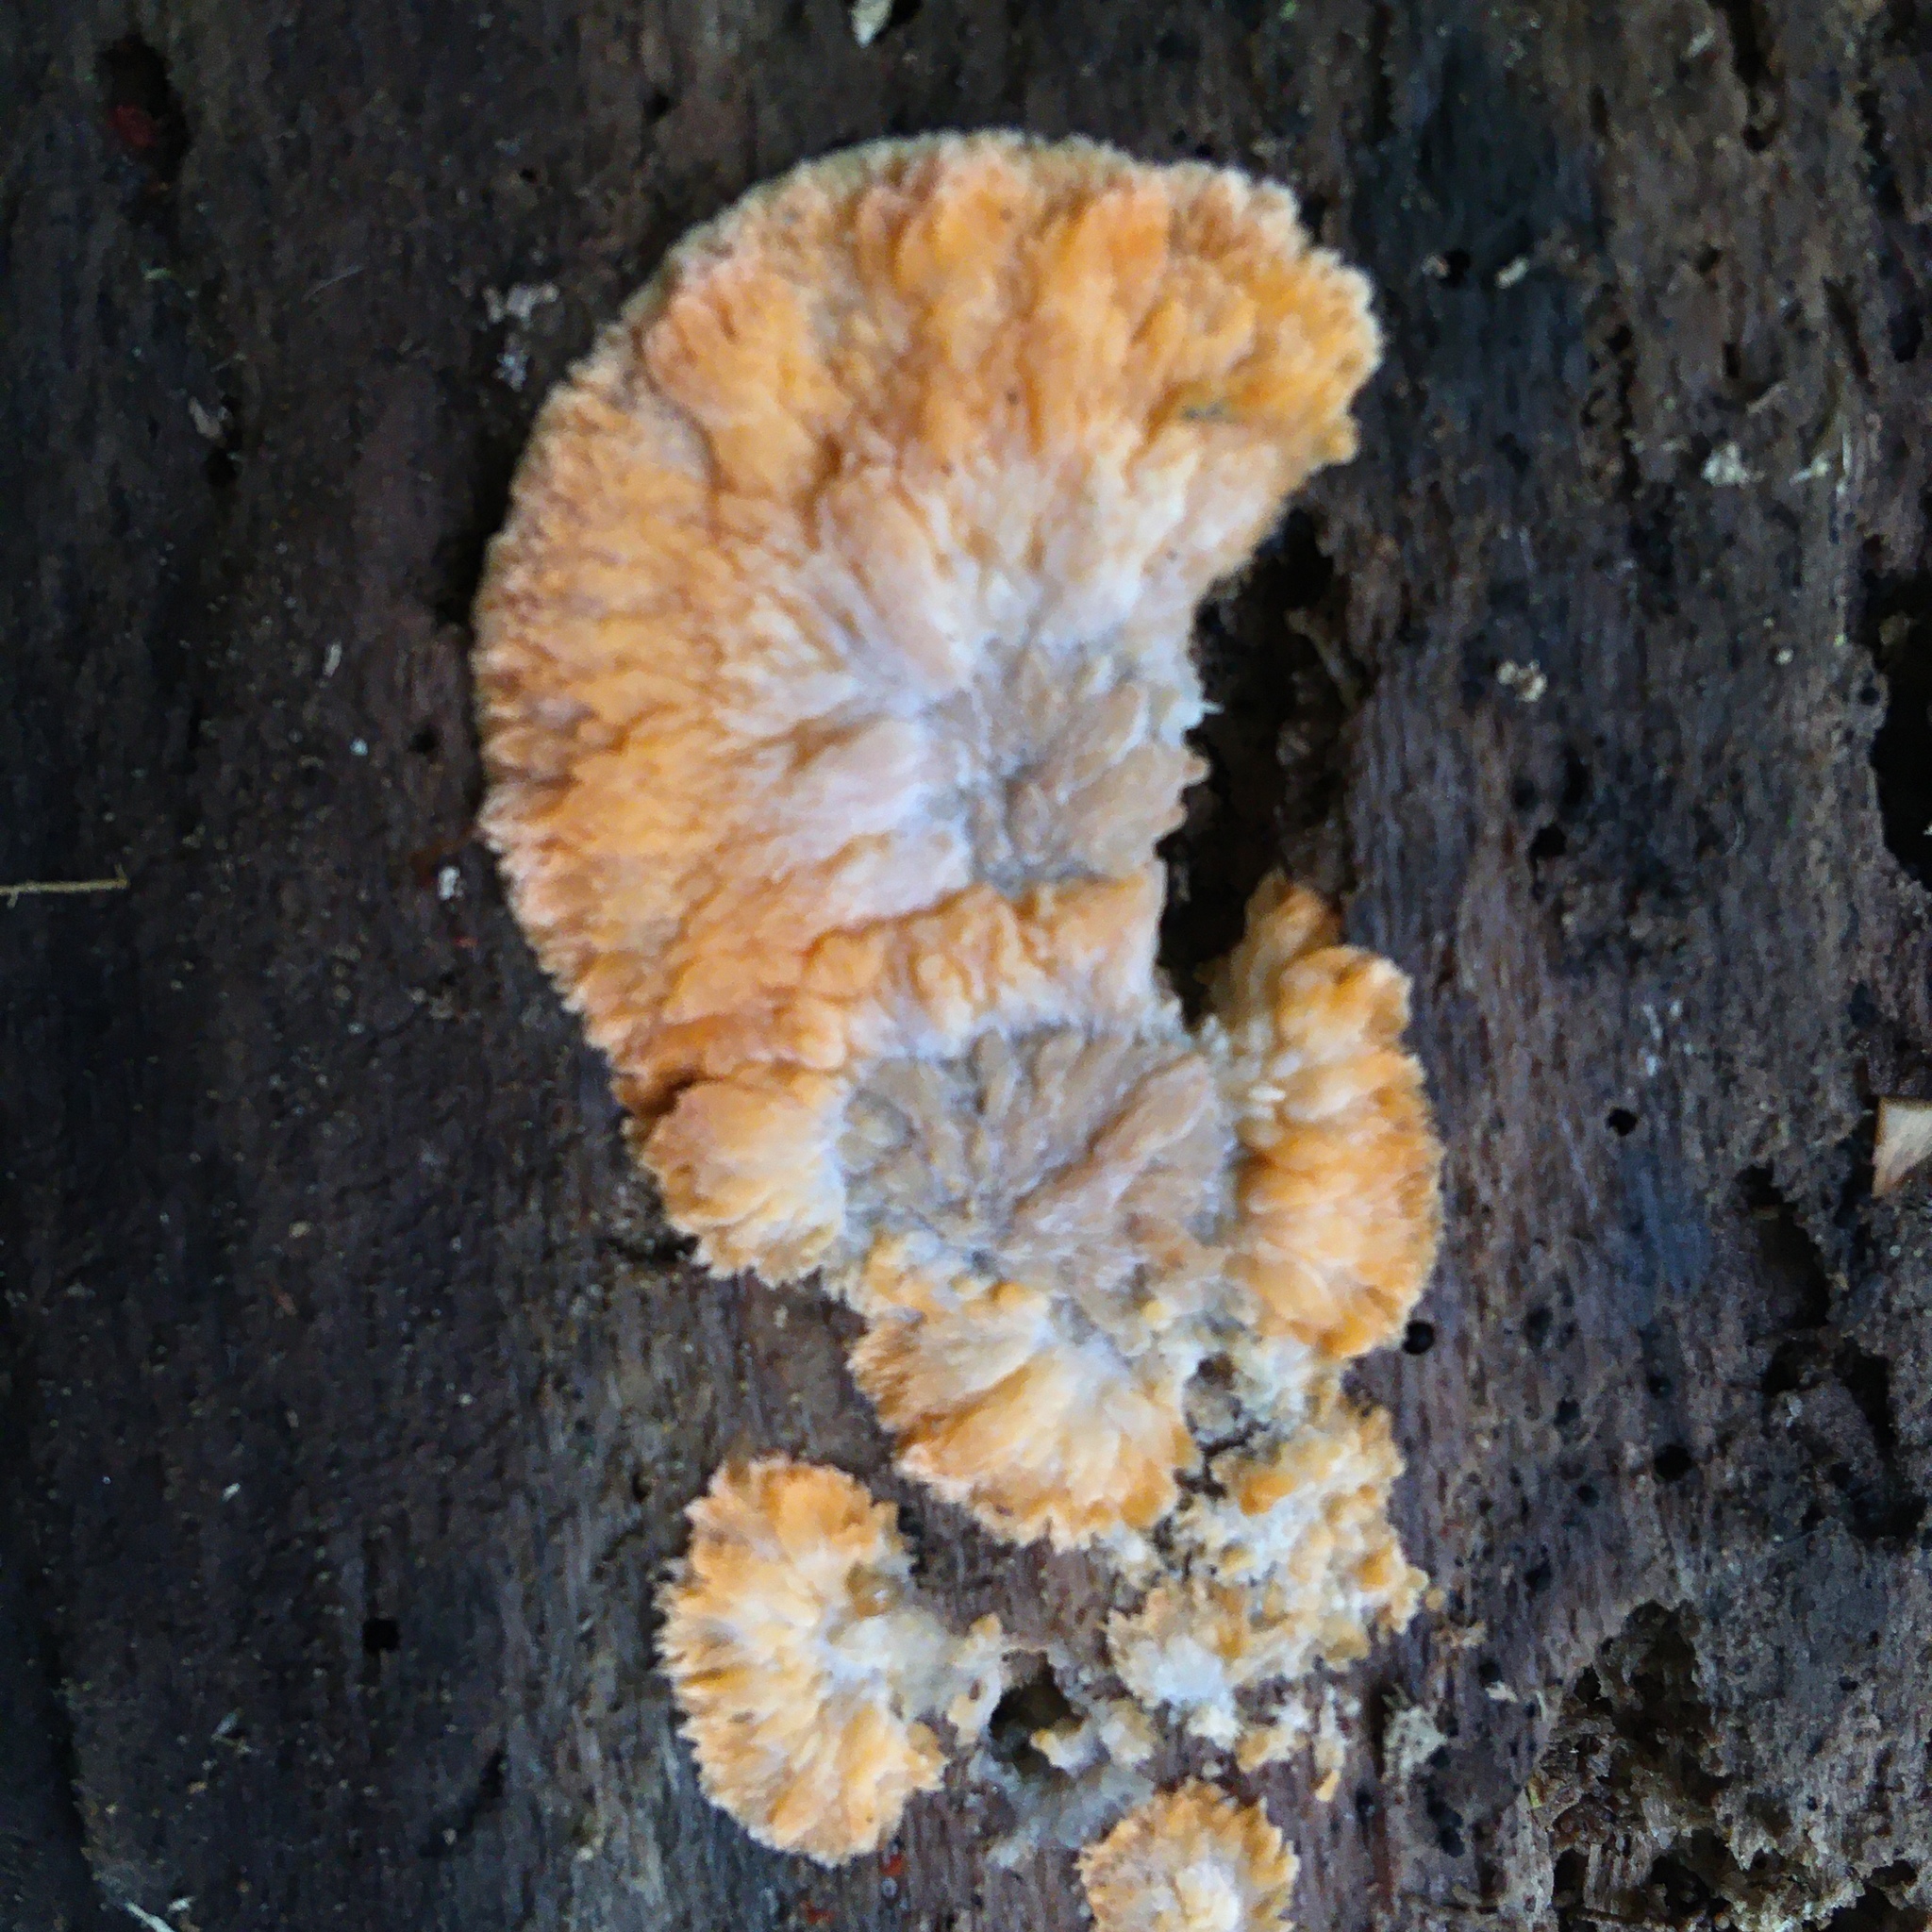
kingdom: Fungi
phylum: Basidiomycota
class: Agaricomycetes
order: Polyporales
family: Meruliaceae
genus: Phlebia
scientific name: Phlebia radiata
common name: Wrinkled crust
